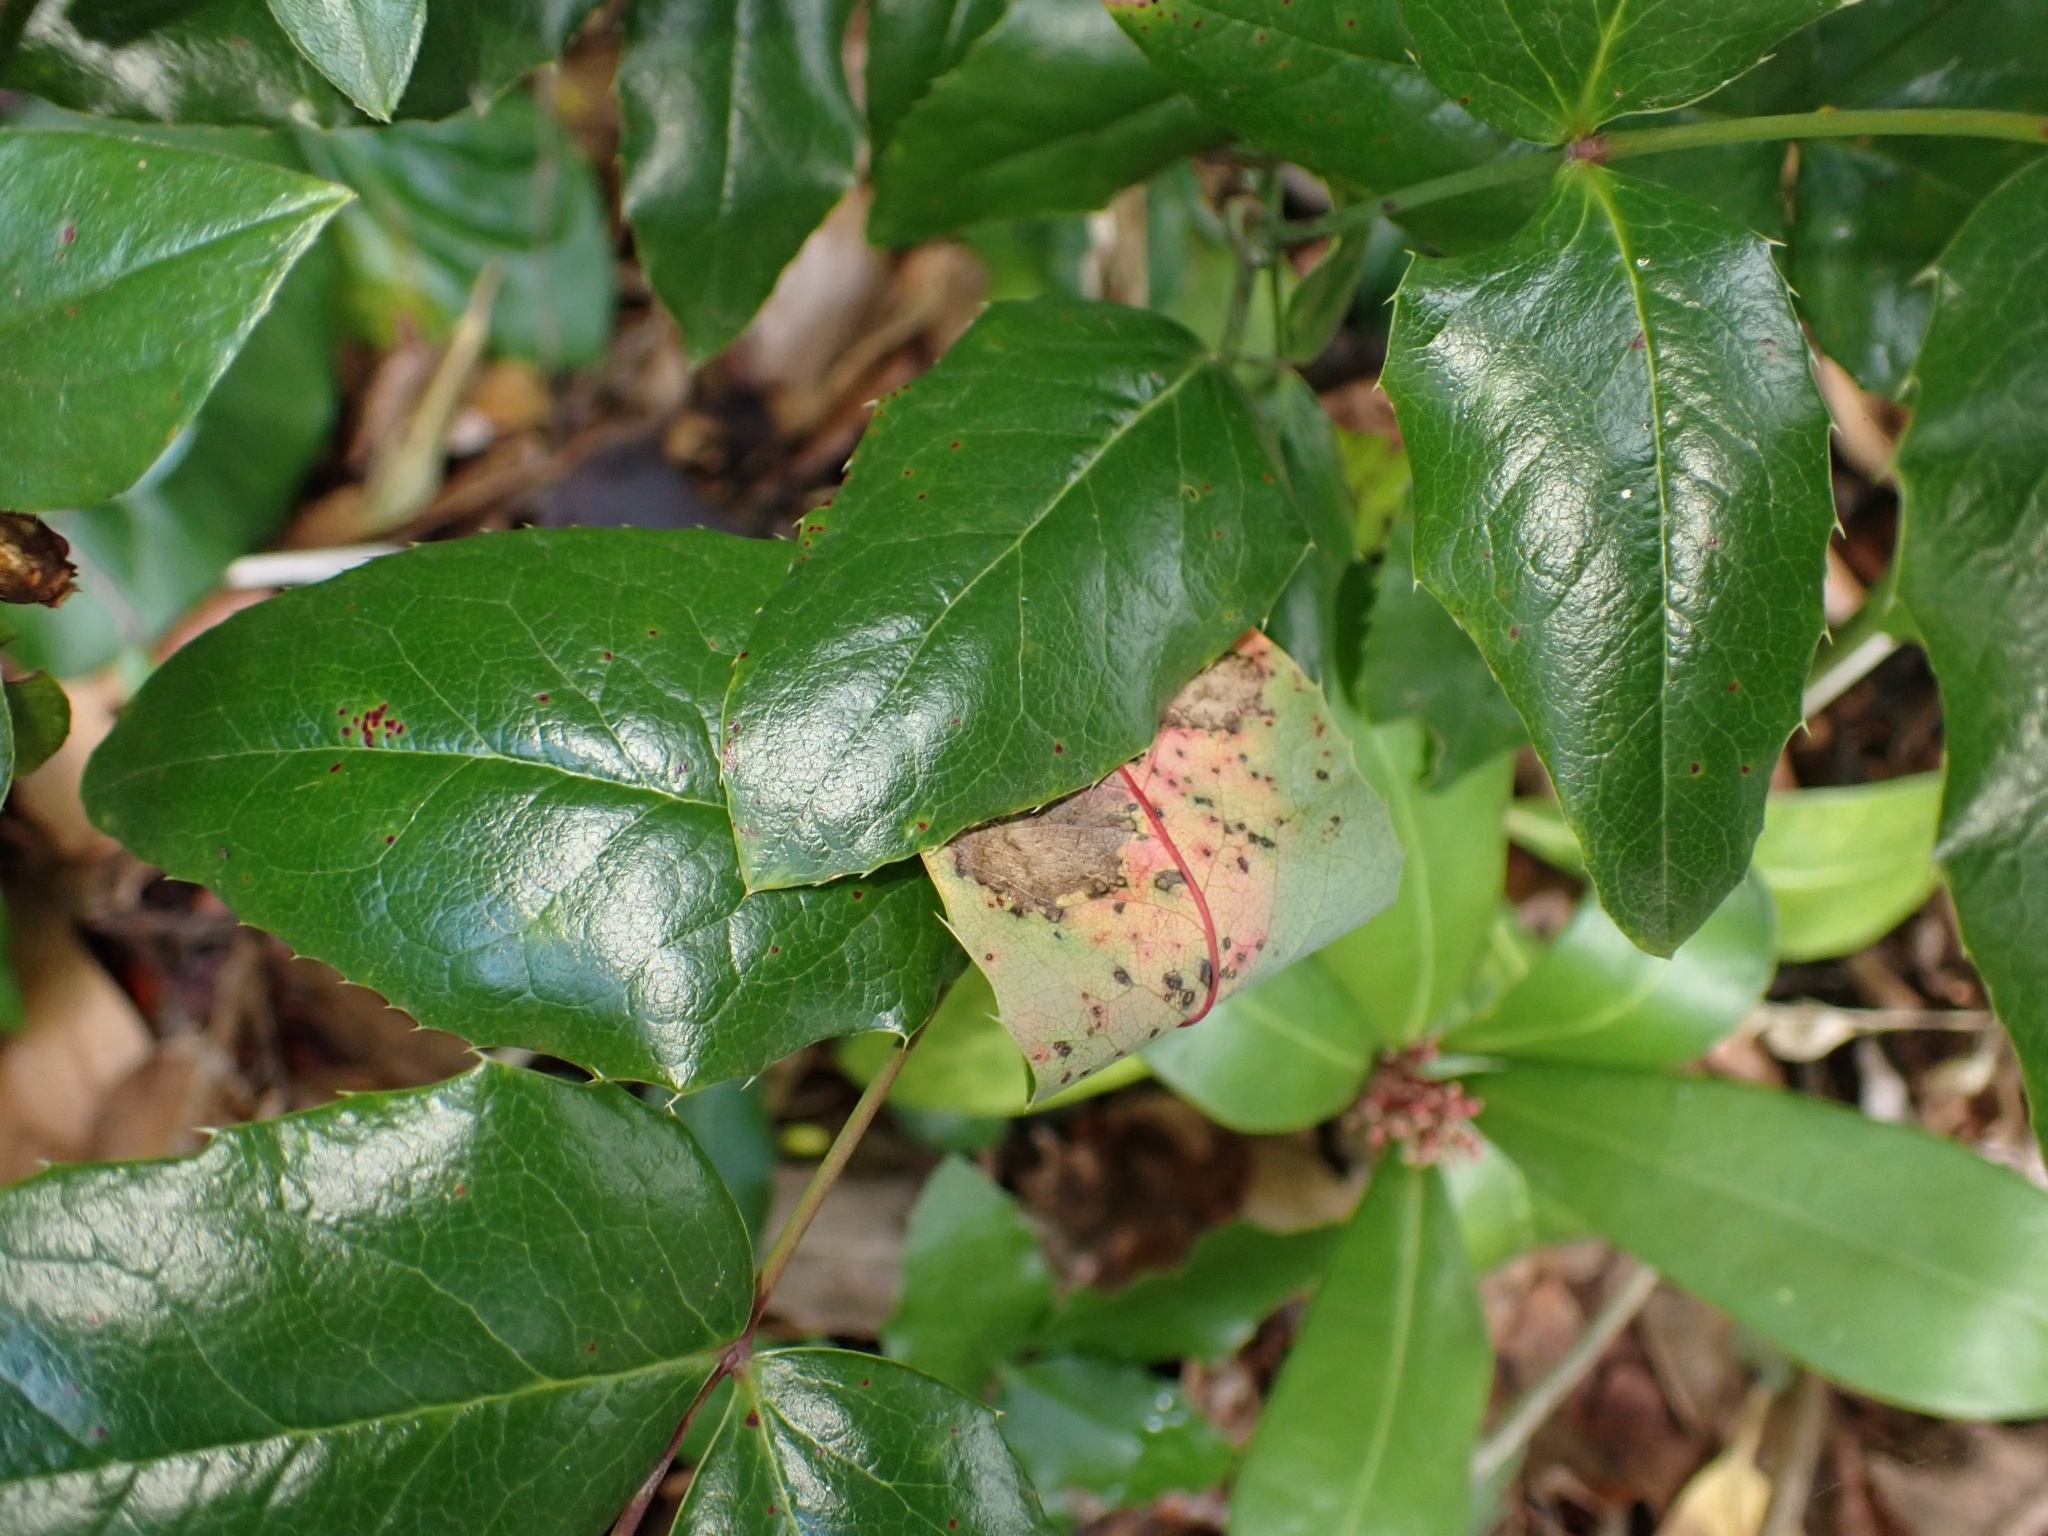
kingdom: Fungi
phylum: Basidiomycota
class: Pucciniomycetes
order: Pucciniales
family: Pucciniaceae
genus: Cumminsiella
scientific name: Cumminsiella mirabilissima
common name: Mahonia rust
